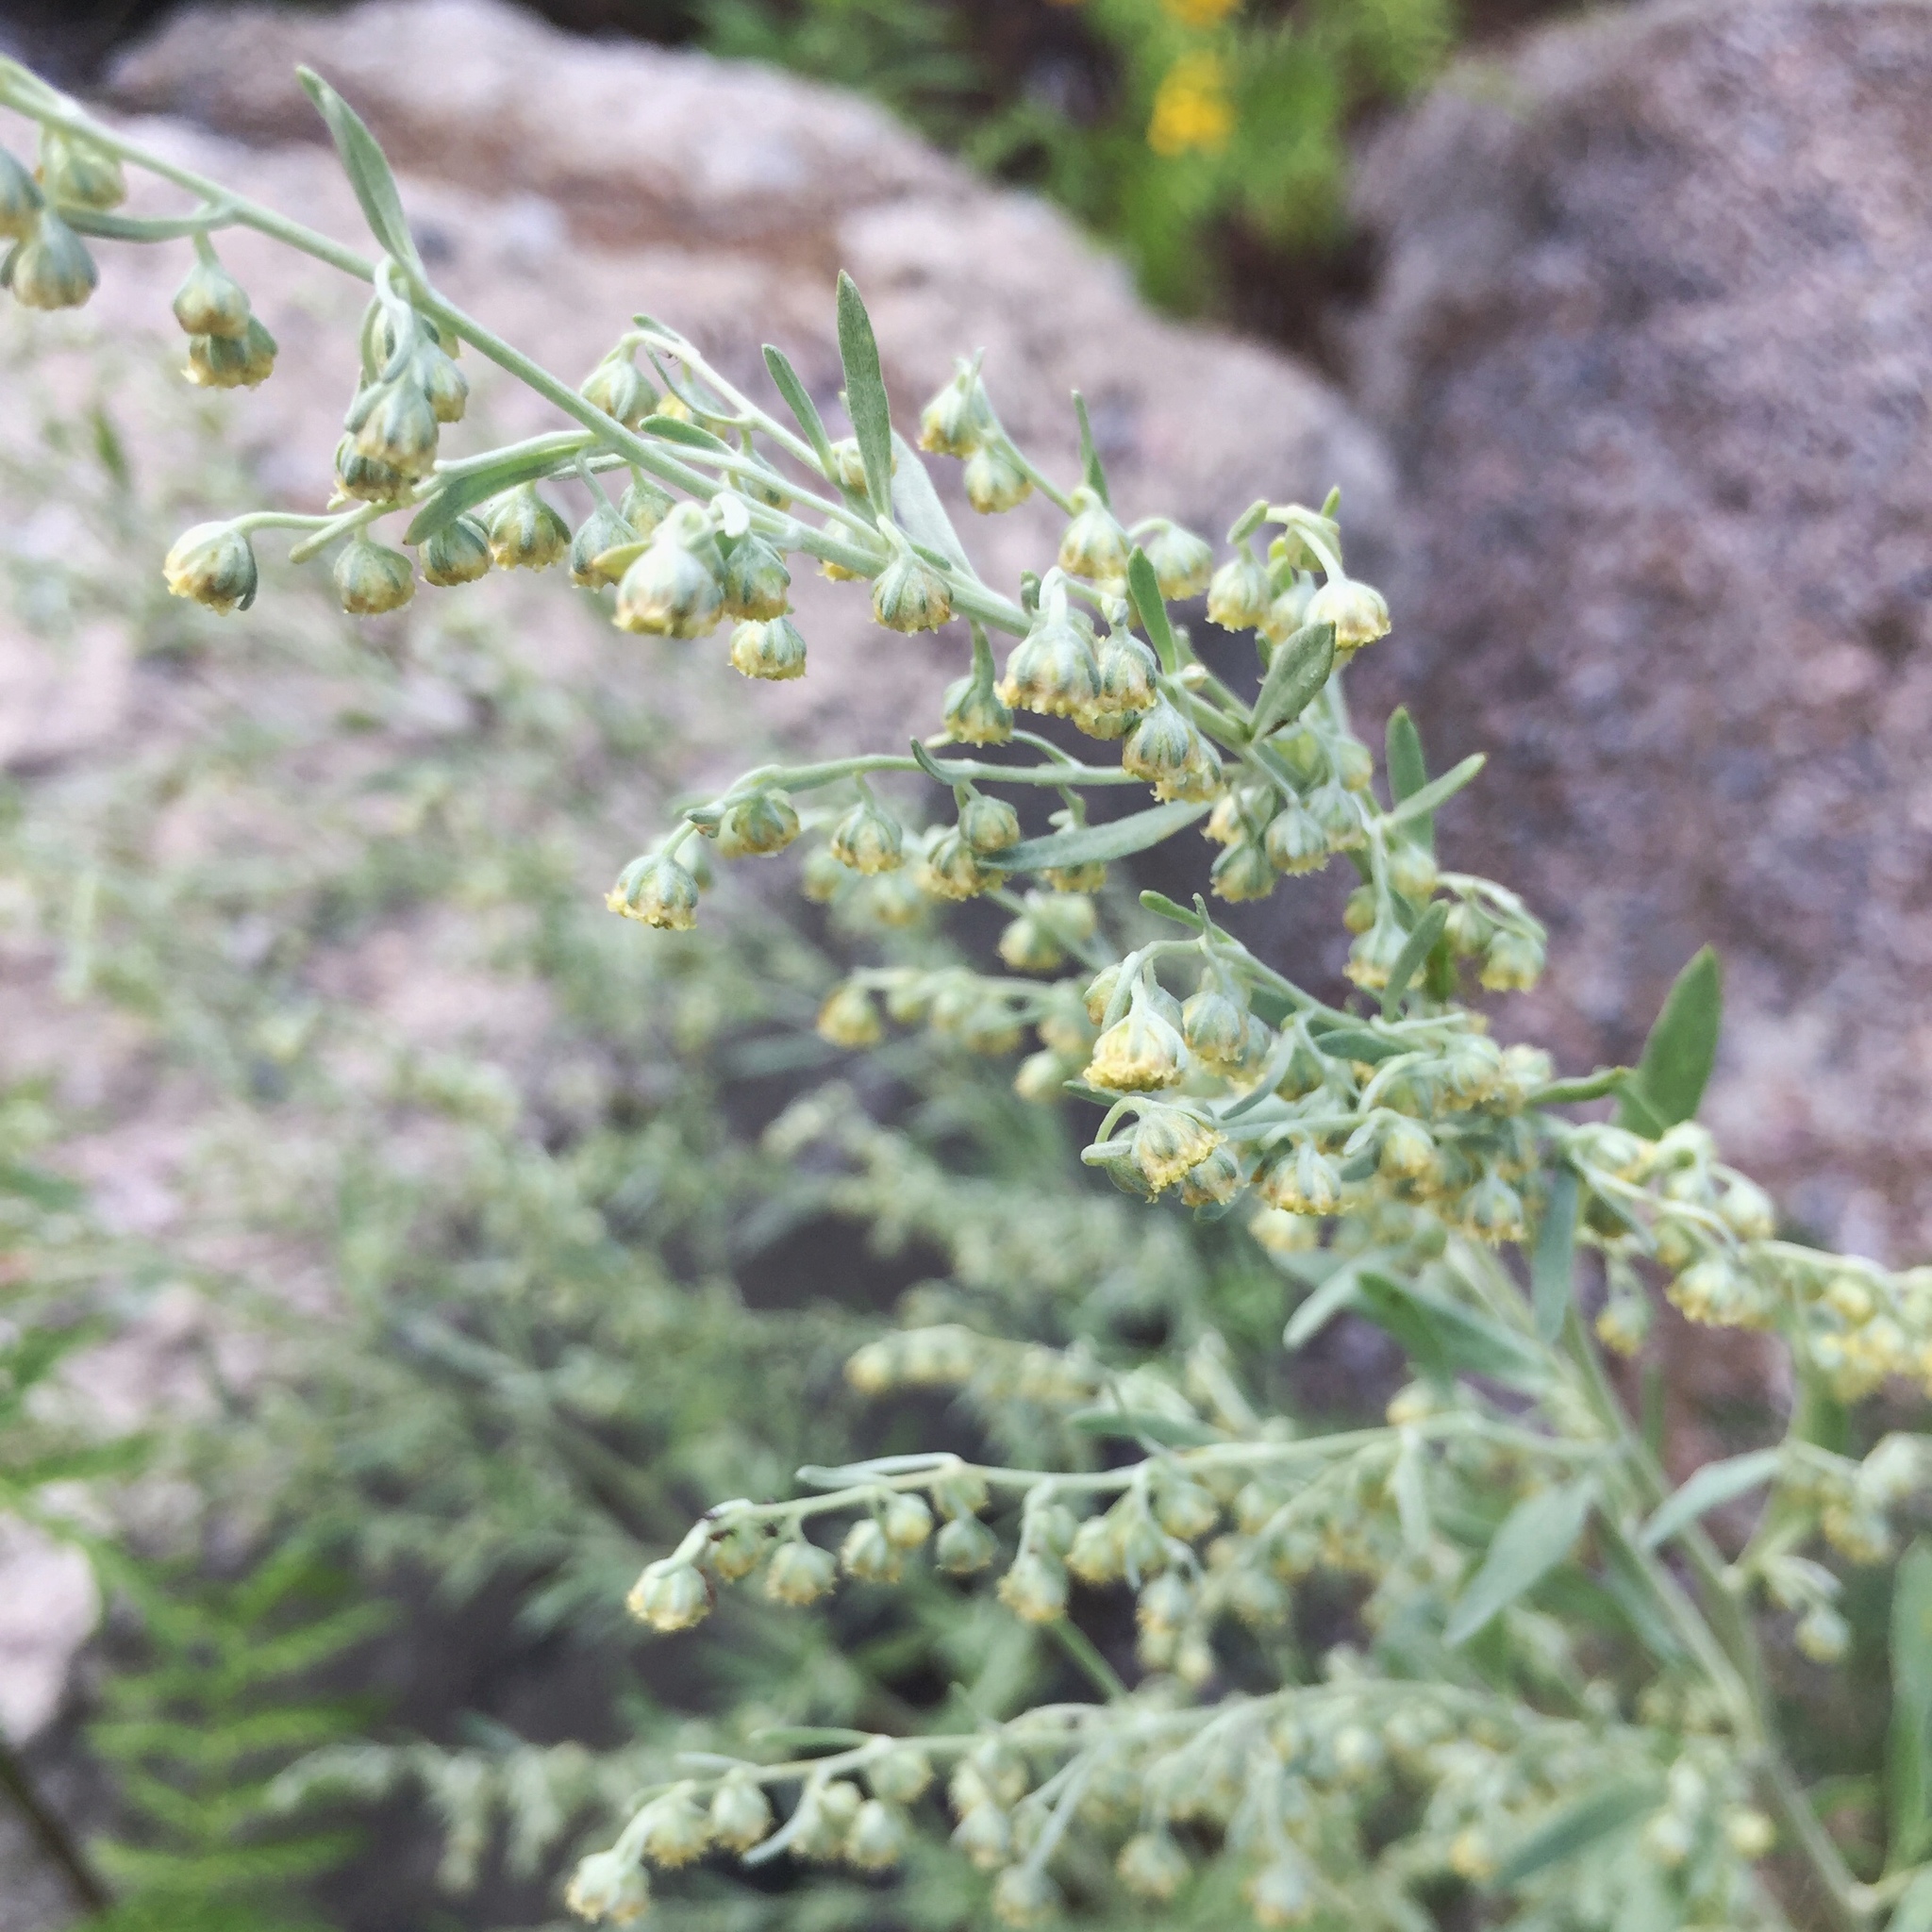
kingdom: Plantae
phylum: Tracheophyta
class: Magnoliopsida
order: Asterales
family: Asteraceae
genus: Artemisia
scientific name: Artemisia absinthium
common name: Wormwood
